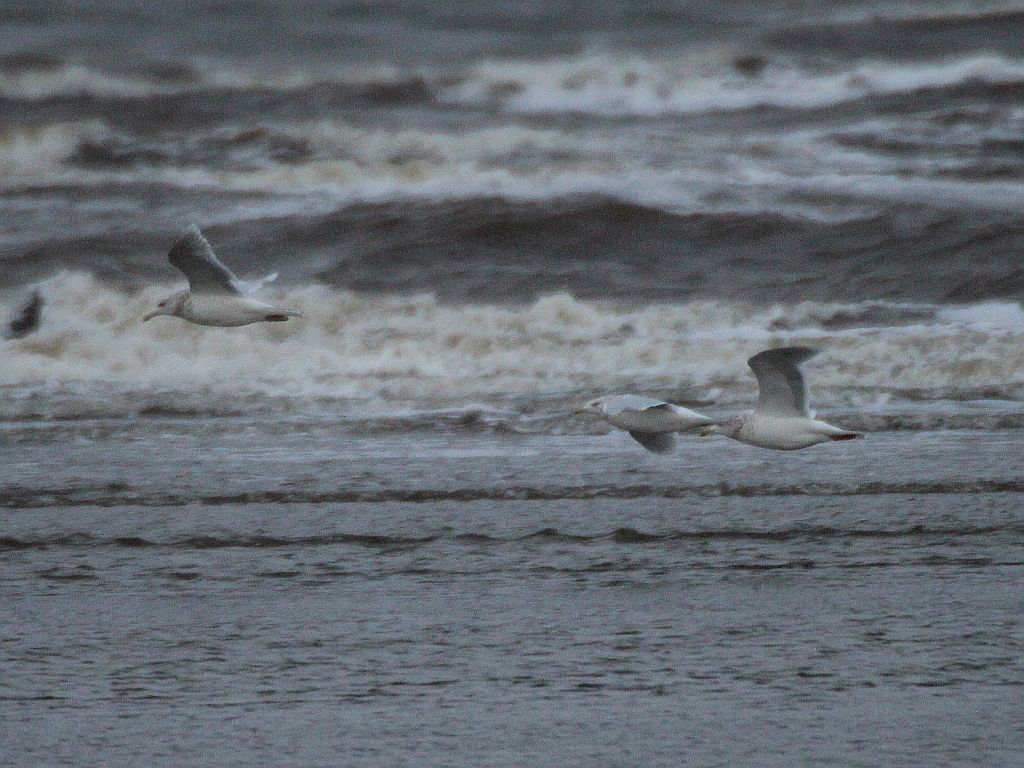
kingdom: Animalia
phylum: Chordata
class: Aves
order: Charadriiformes
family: Laridae
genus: Larus
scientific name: Larus hyperboreus
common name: Glaucous gull
